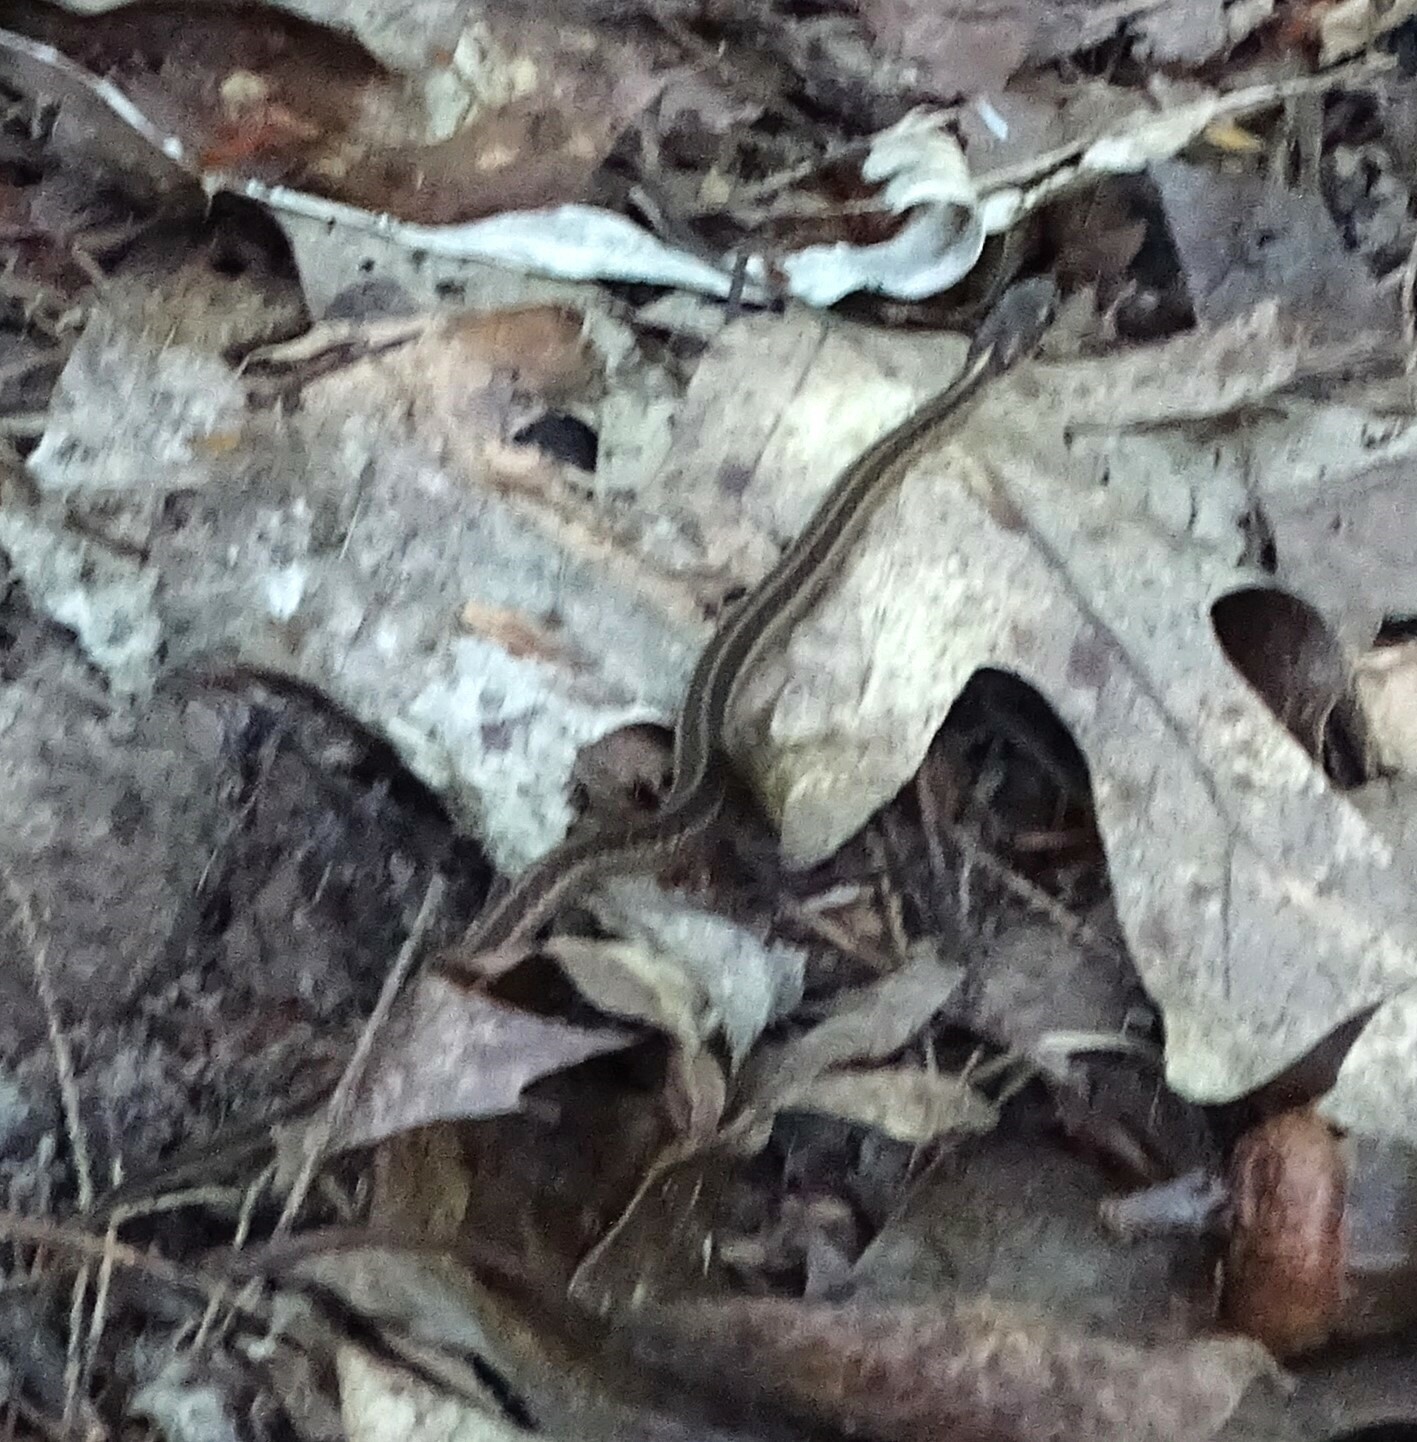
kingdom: Animalia
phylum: Chordata
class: Squamata
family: Colubridae
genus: Thamnophis
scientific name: Thamnophis sirtalis
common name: Common garter snake
